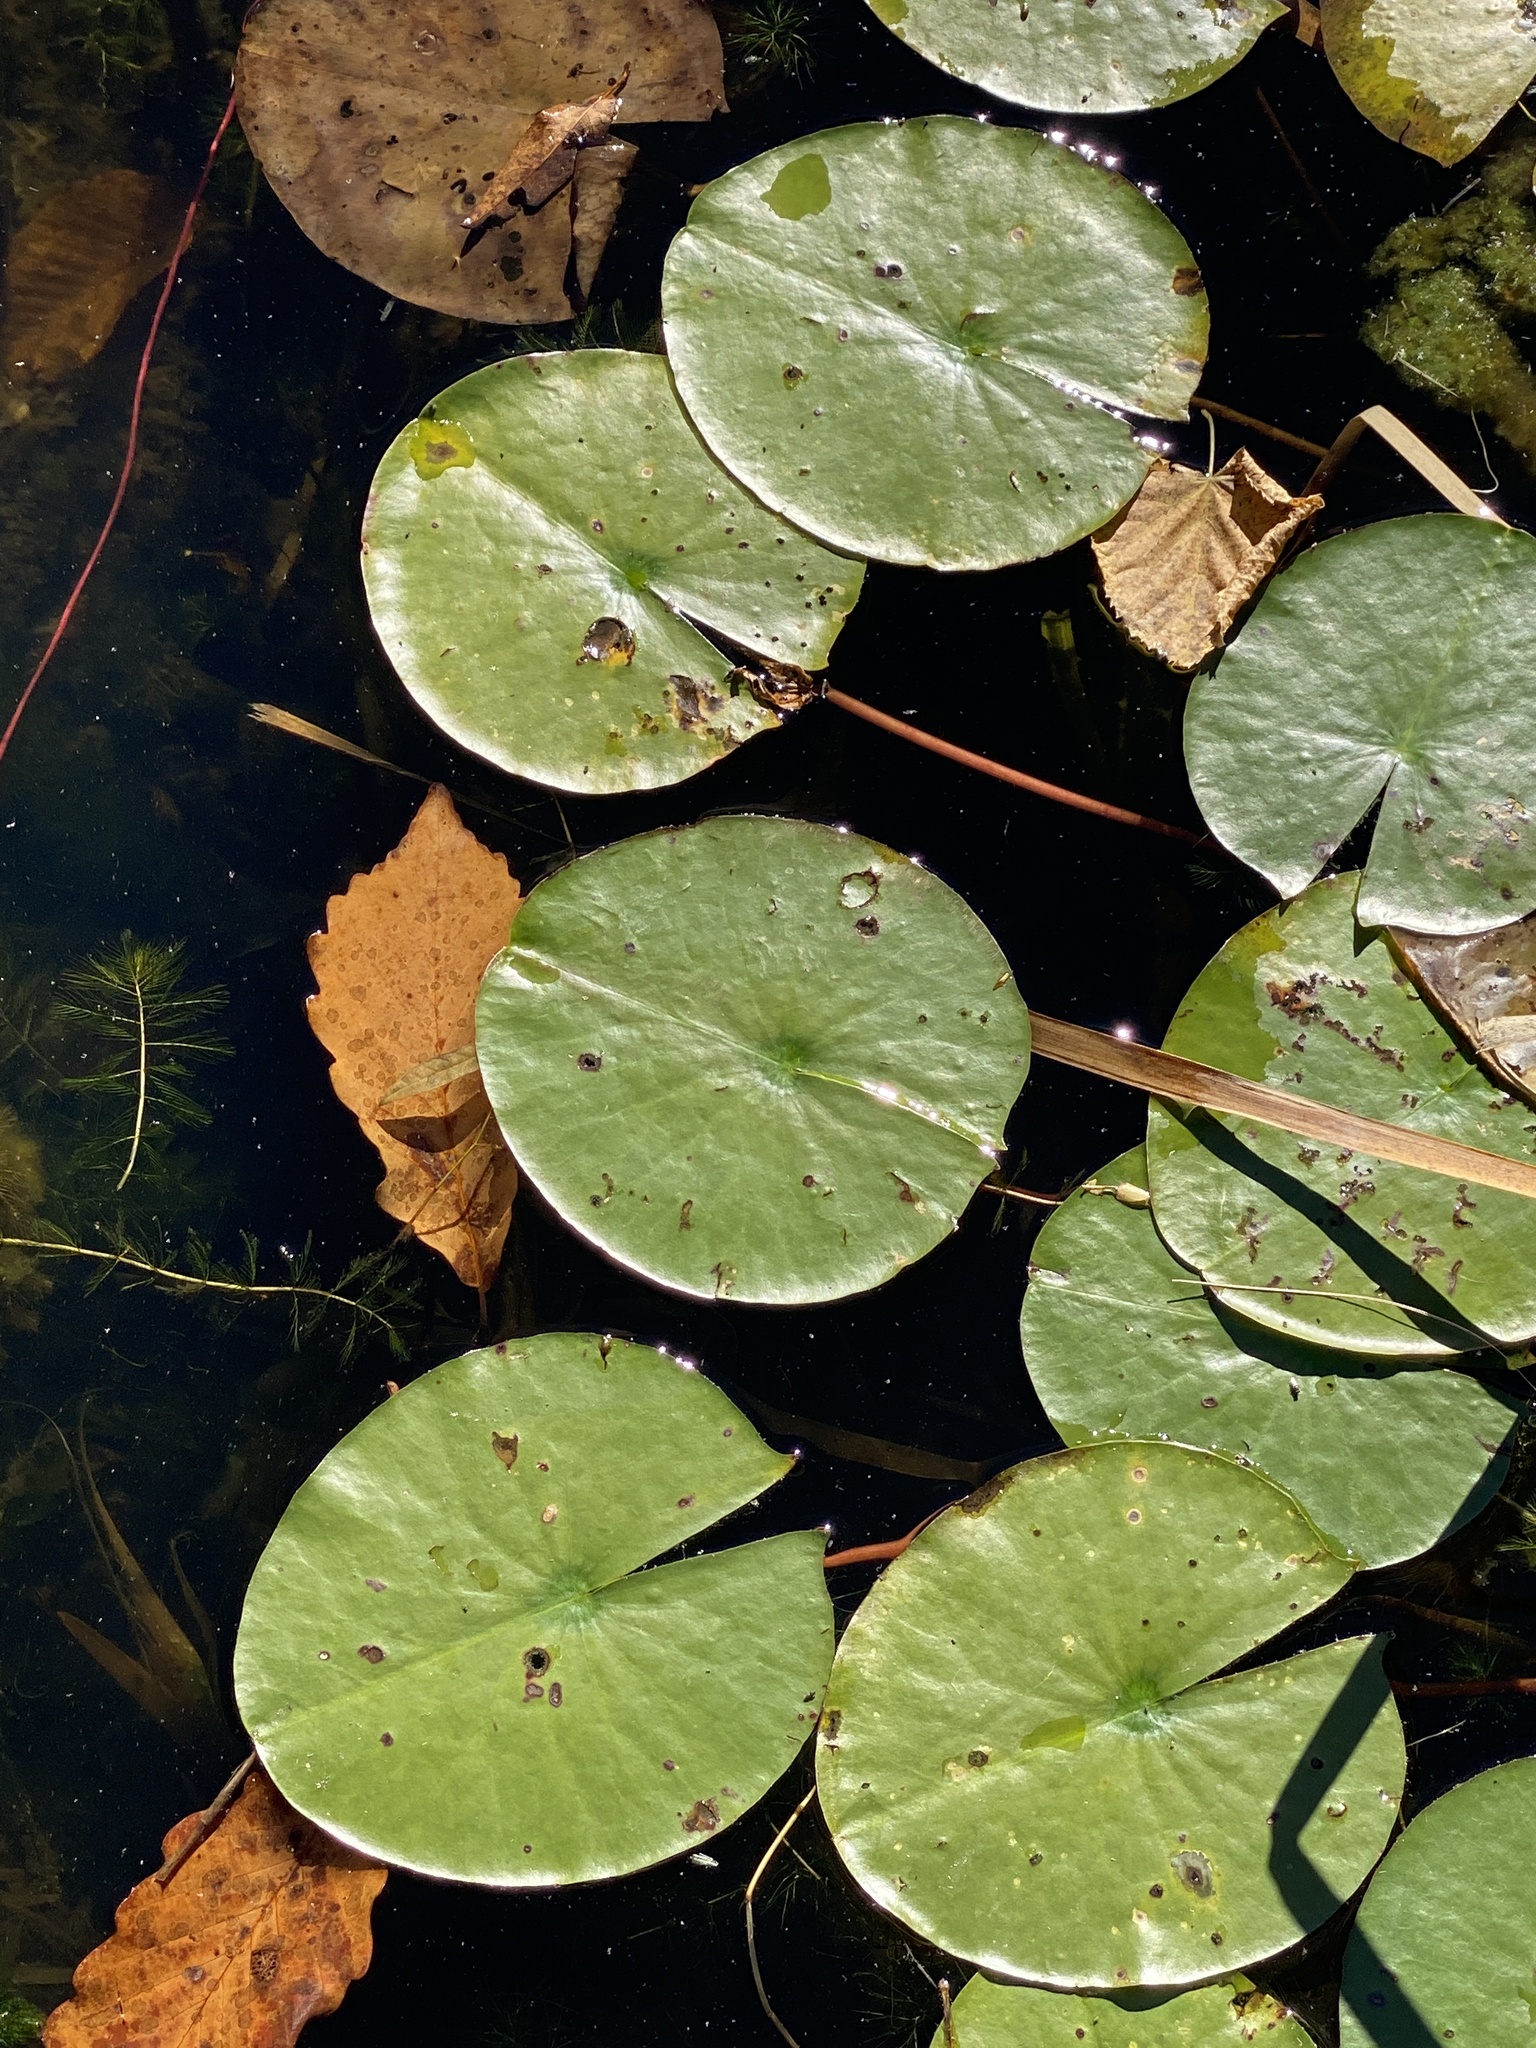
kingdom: Plantae
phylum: Tracheophyta
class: Magnoliopsida
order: Nymphaeales
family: Nymphaeaceae
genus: Nymphaea
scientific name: Nymphaea odorata
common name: Fragrant water-lily
